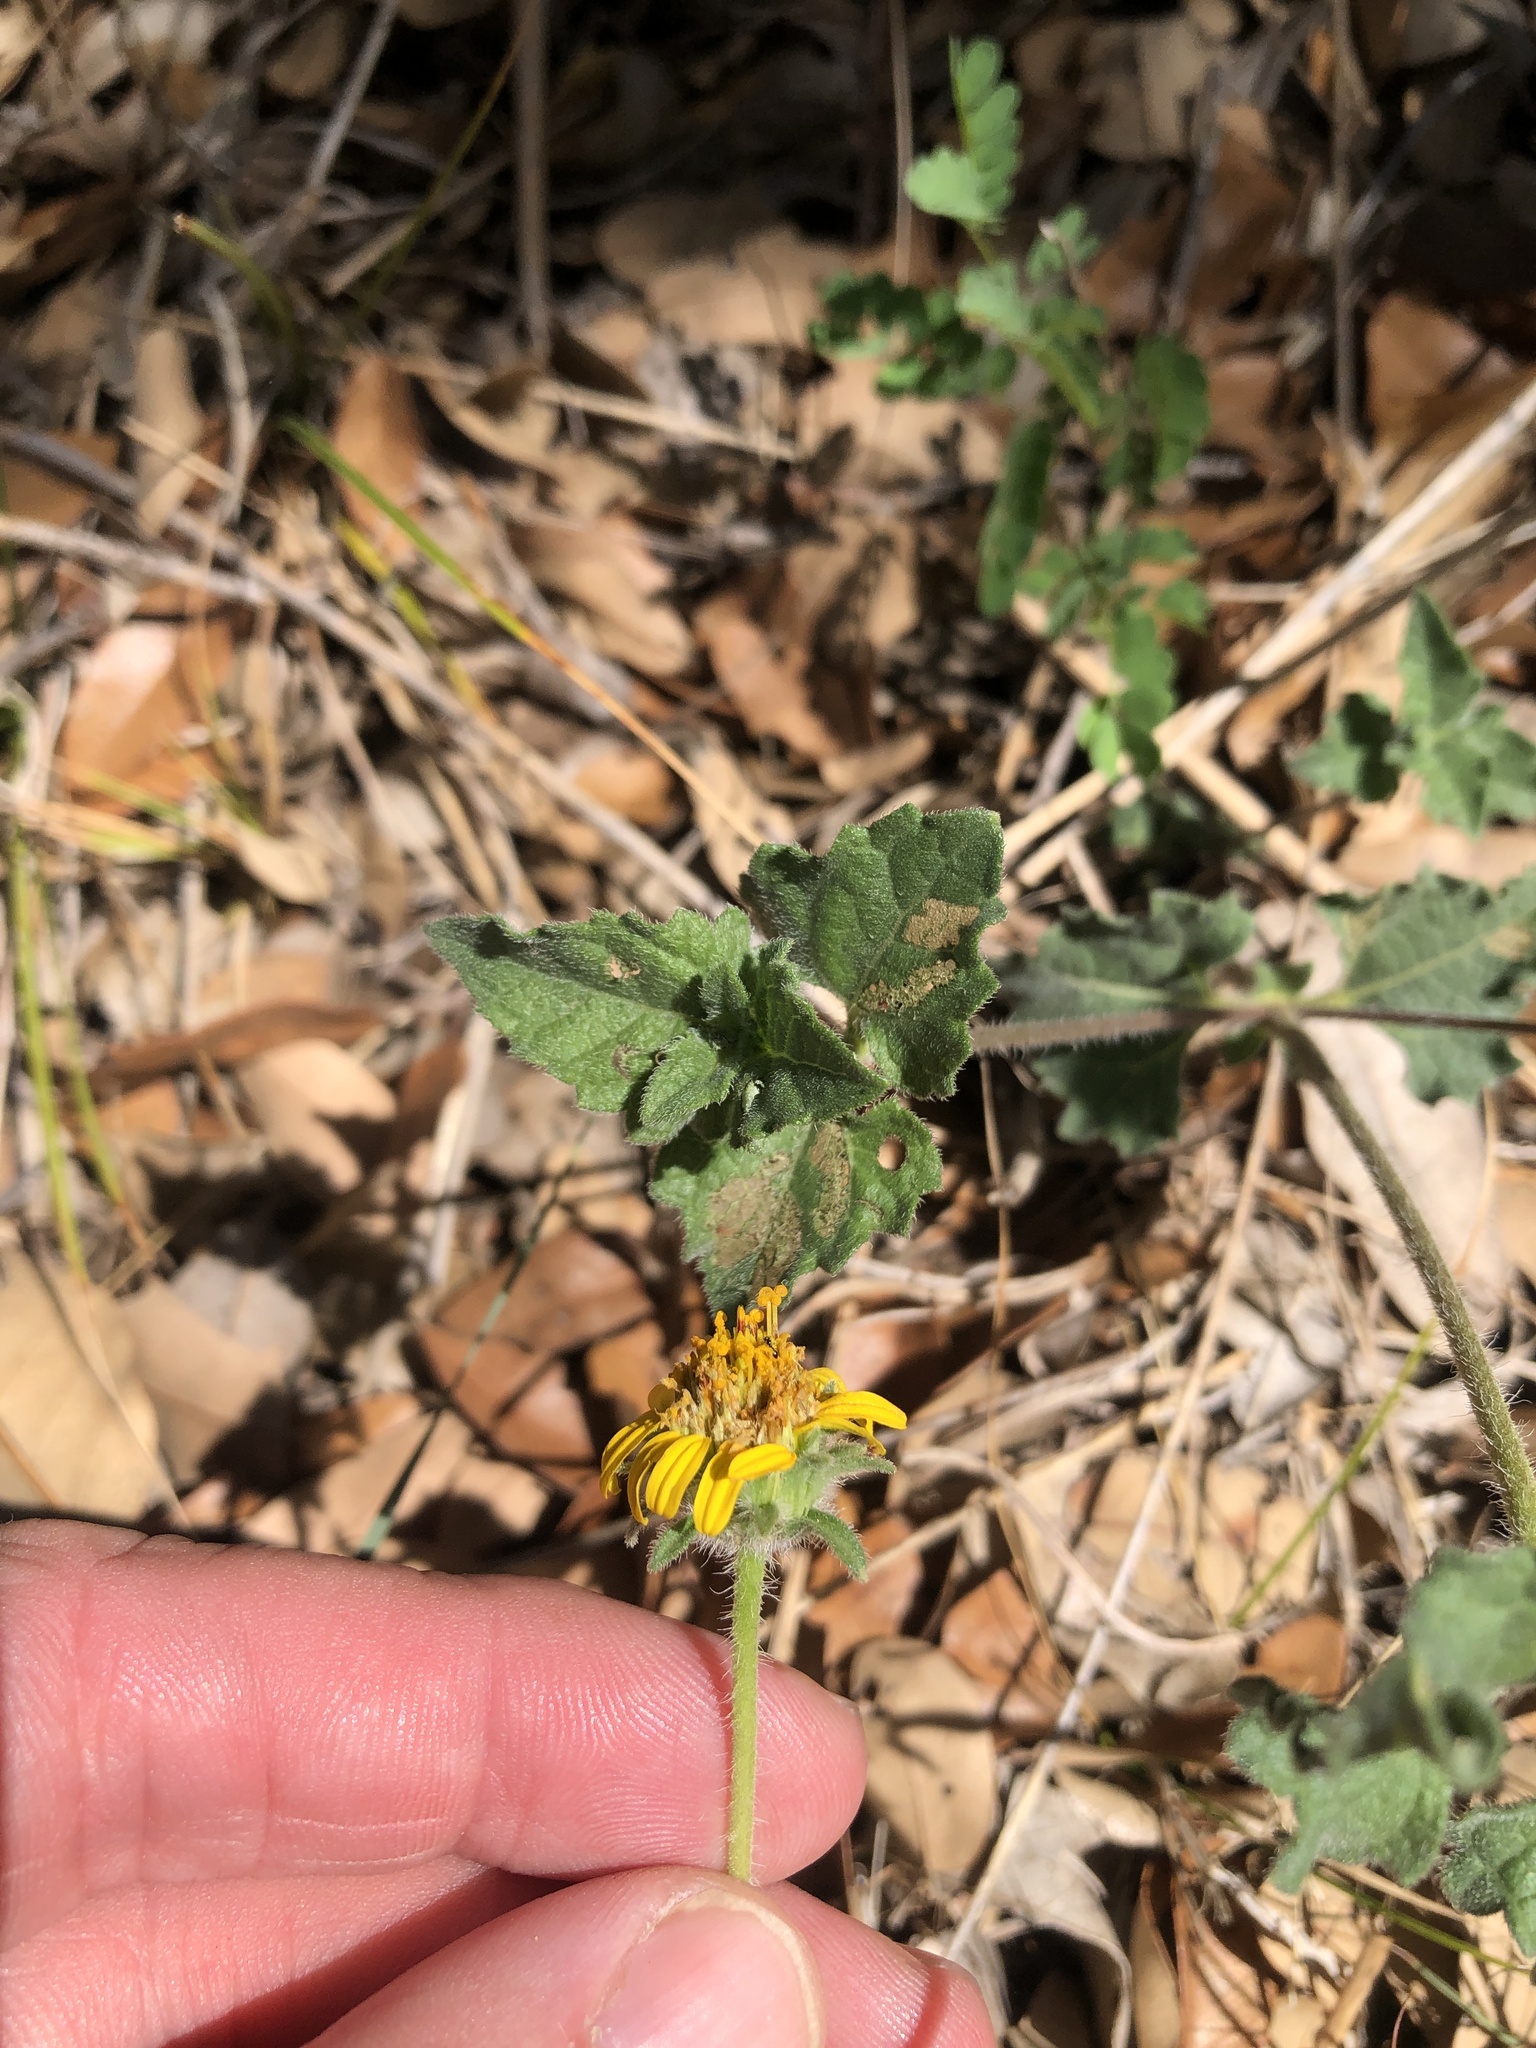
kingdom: Plantae
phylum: Tracheophyta
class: Magnoliopsida
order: Asterales
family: Asteraceae
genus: Simsia
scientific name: Simsia calva
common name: Awnless bush-sunflower
